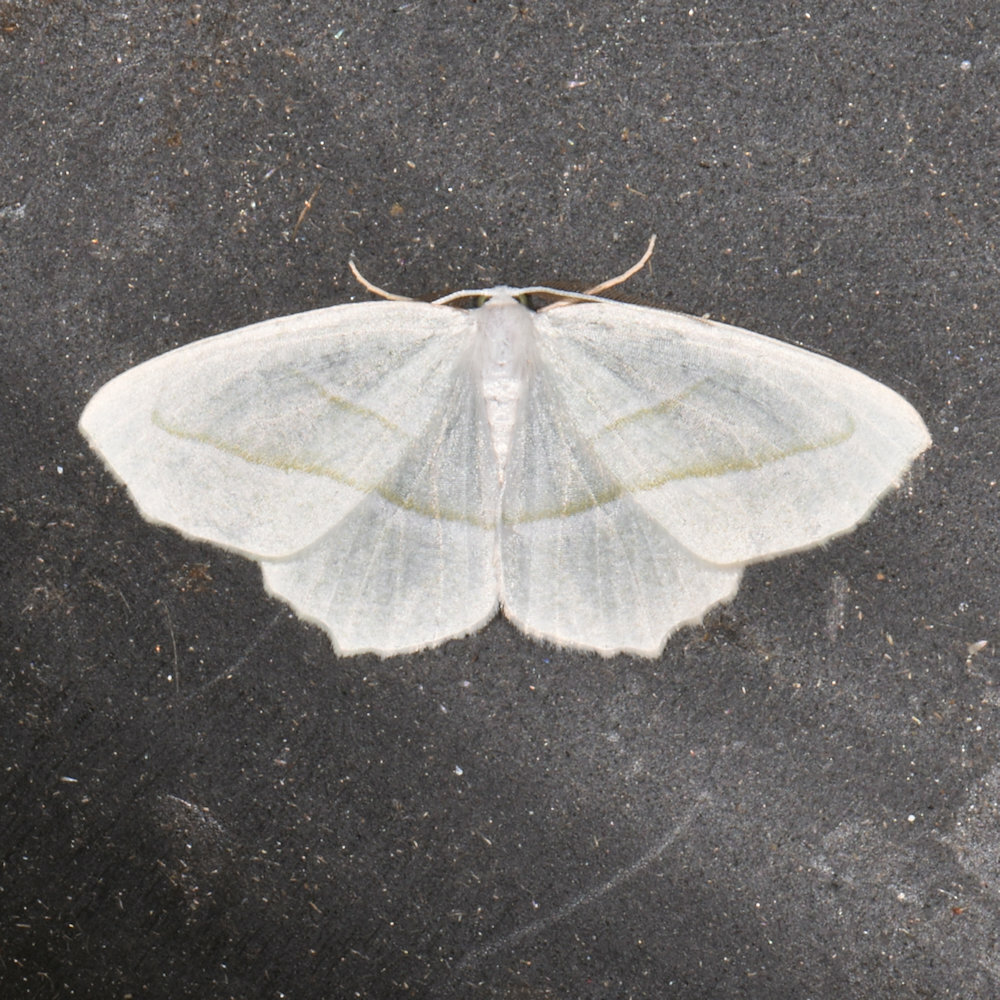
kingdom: Animalia
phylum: Arthropoda
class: Insecta
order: Lepidoptera
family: Geometridae
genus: Campaea
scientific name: Campaea perlata
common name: Fringed looper
